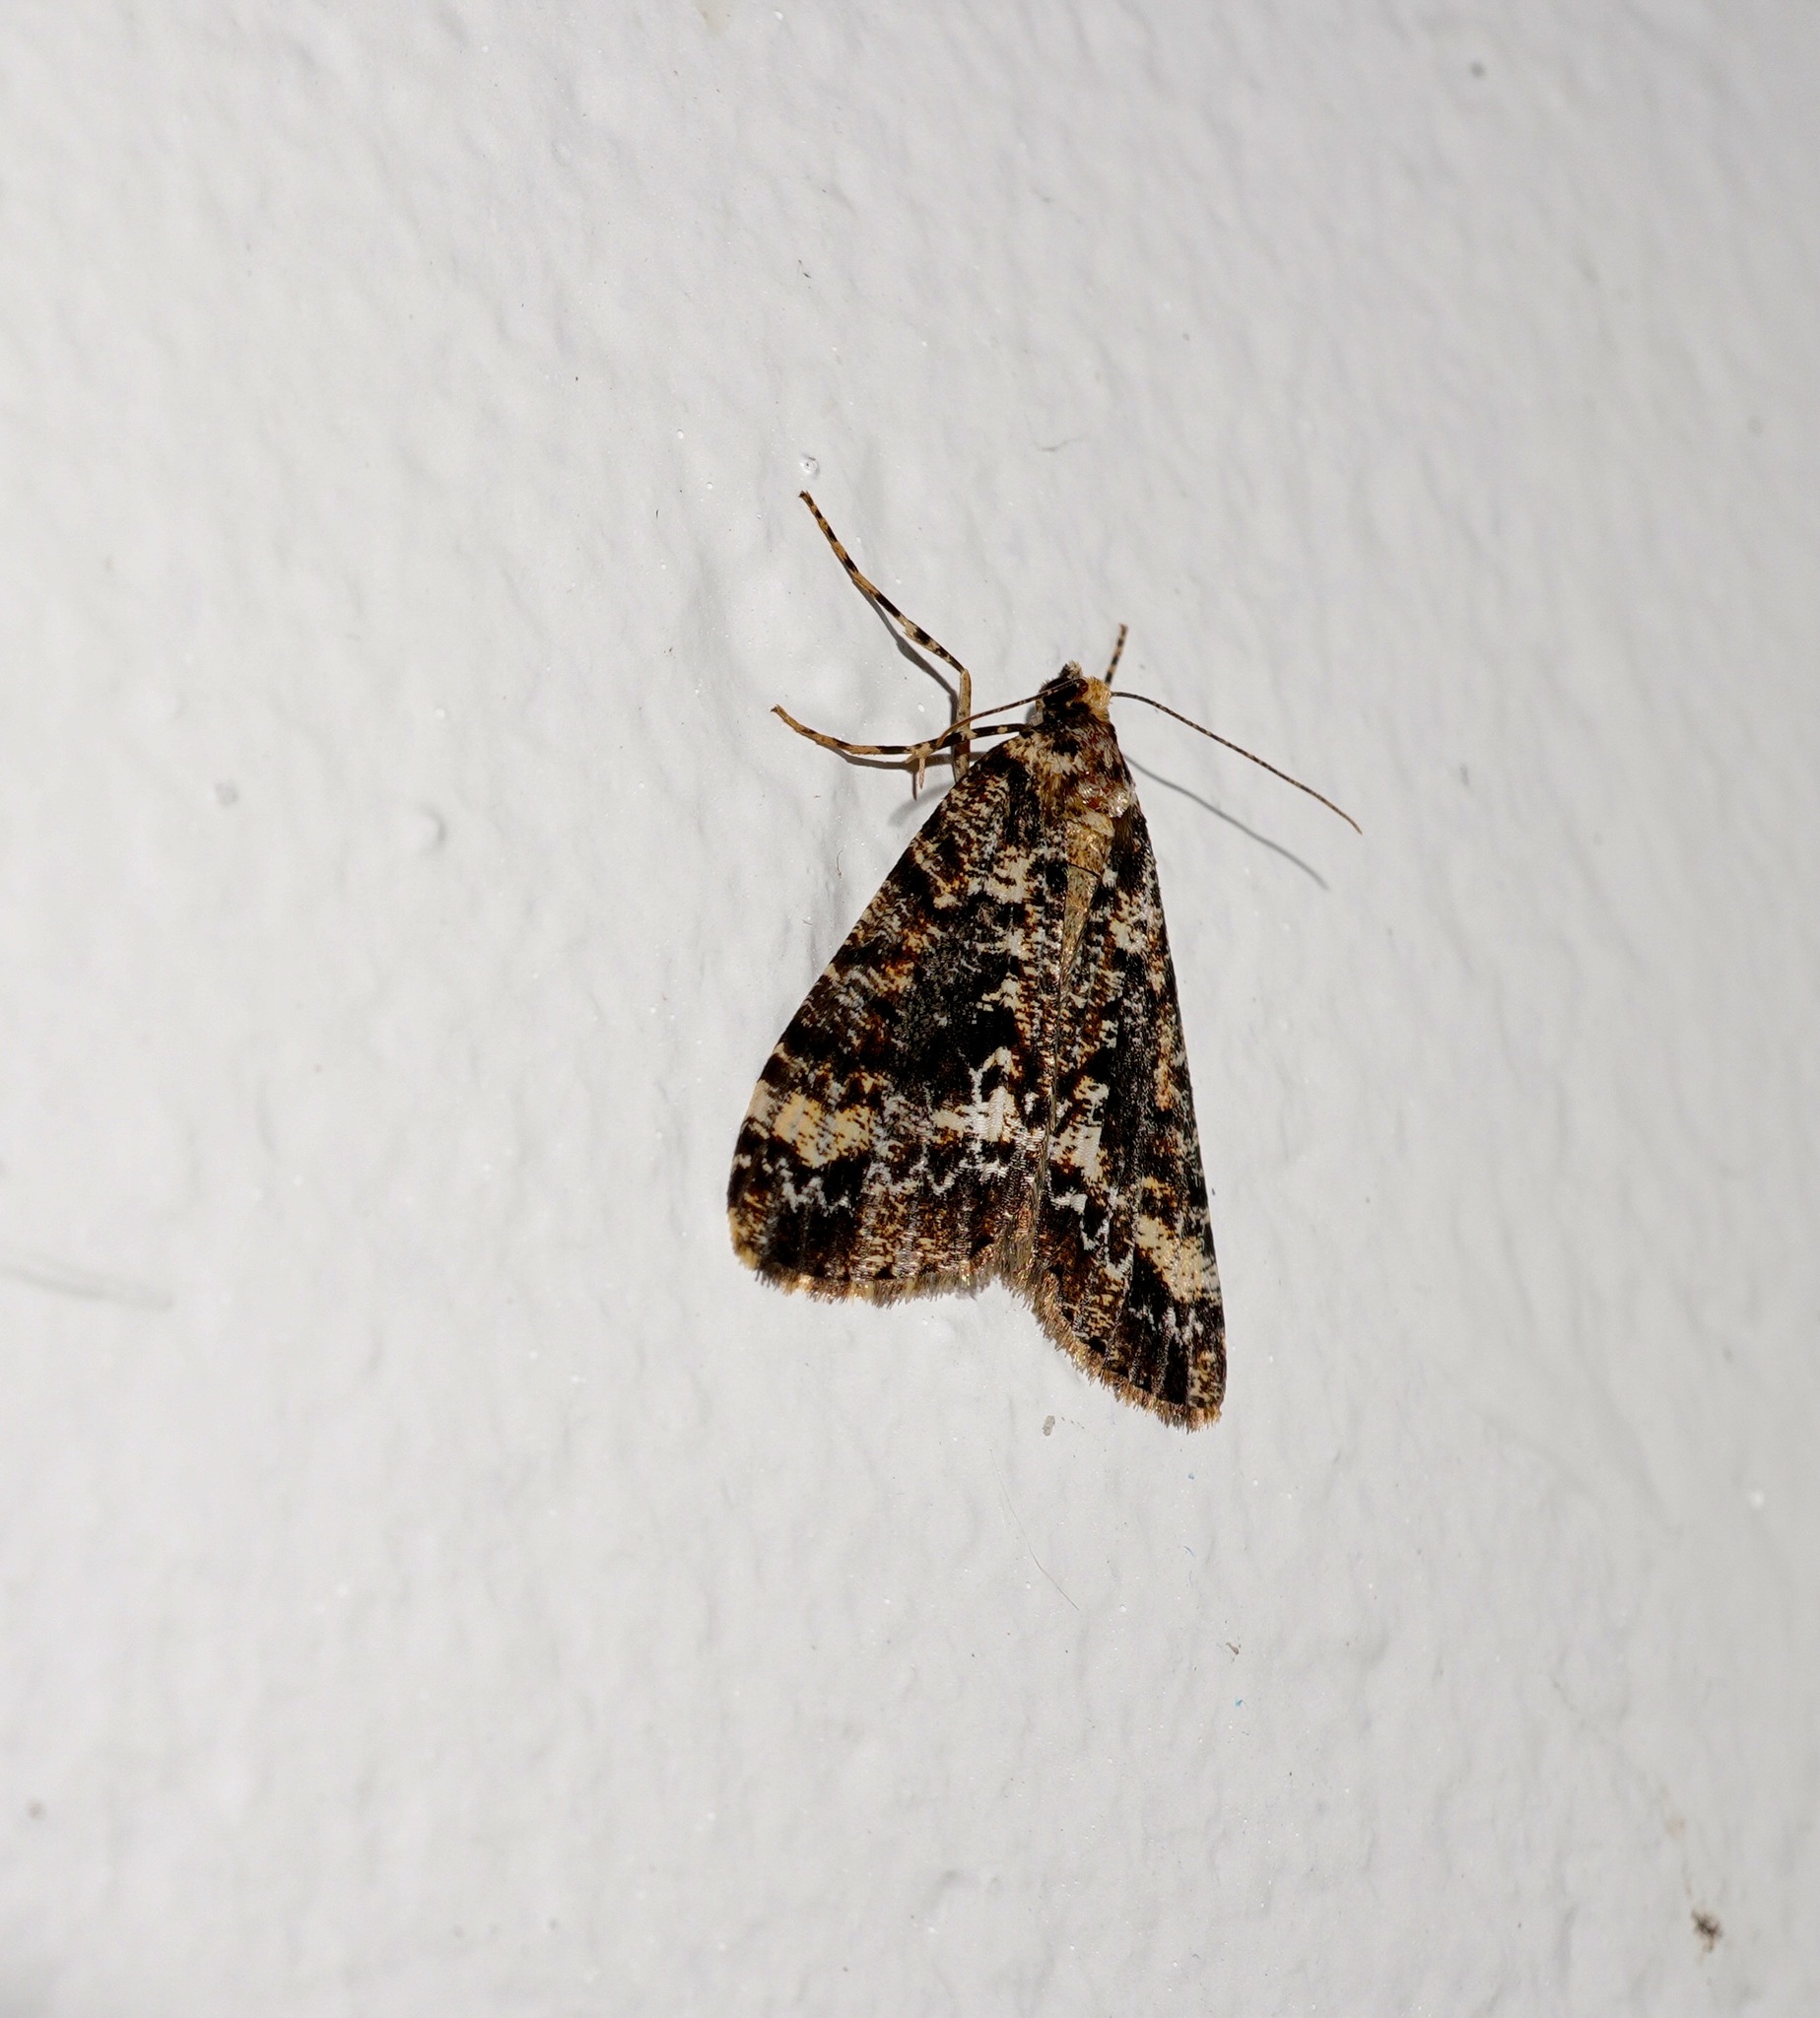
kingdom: Animalia
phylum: Arthropoda
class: Insecta
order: Lepidoptera
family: Geometridae
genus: Pseudocoremia
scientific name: Pseudocoremia leucelaea
